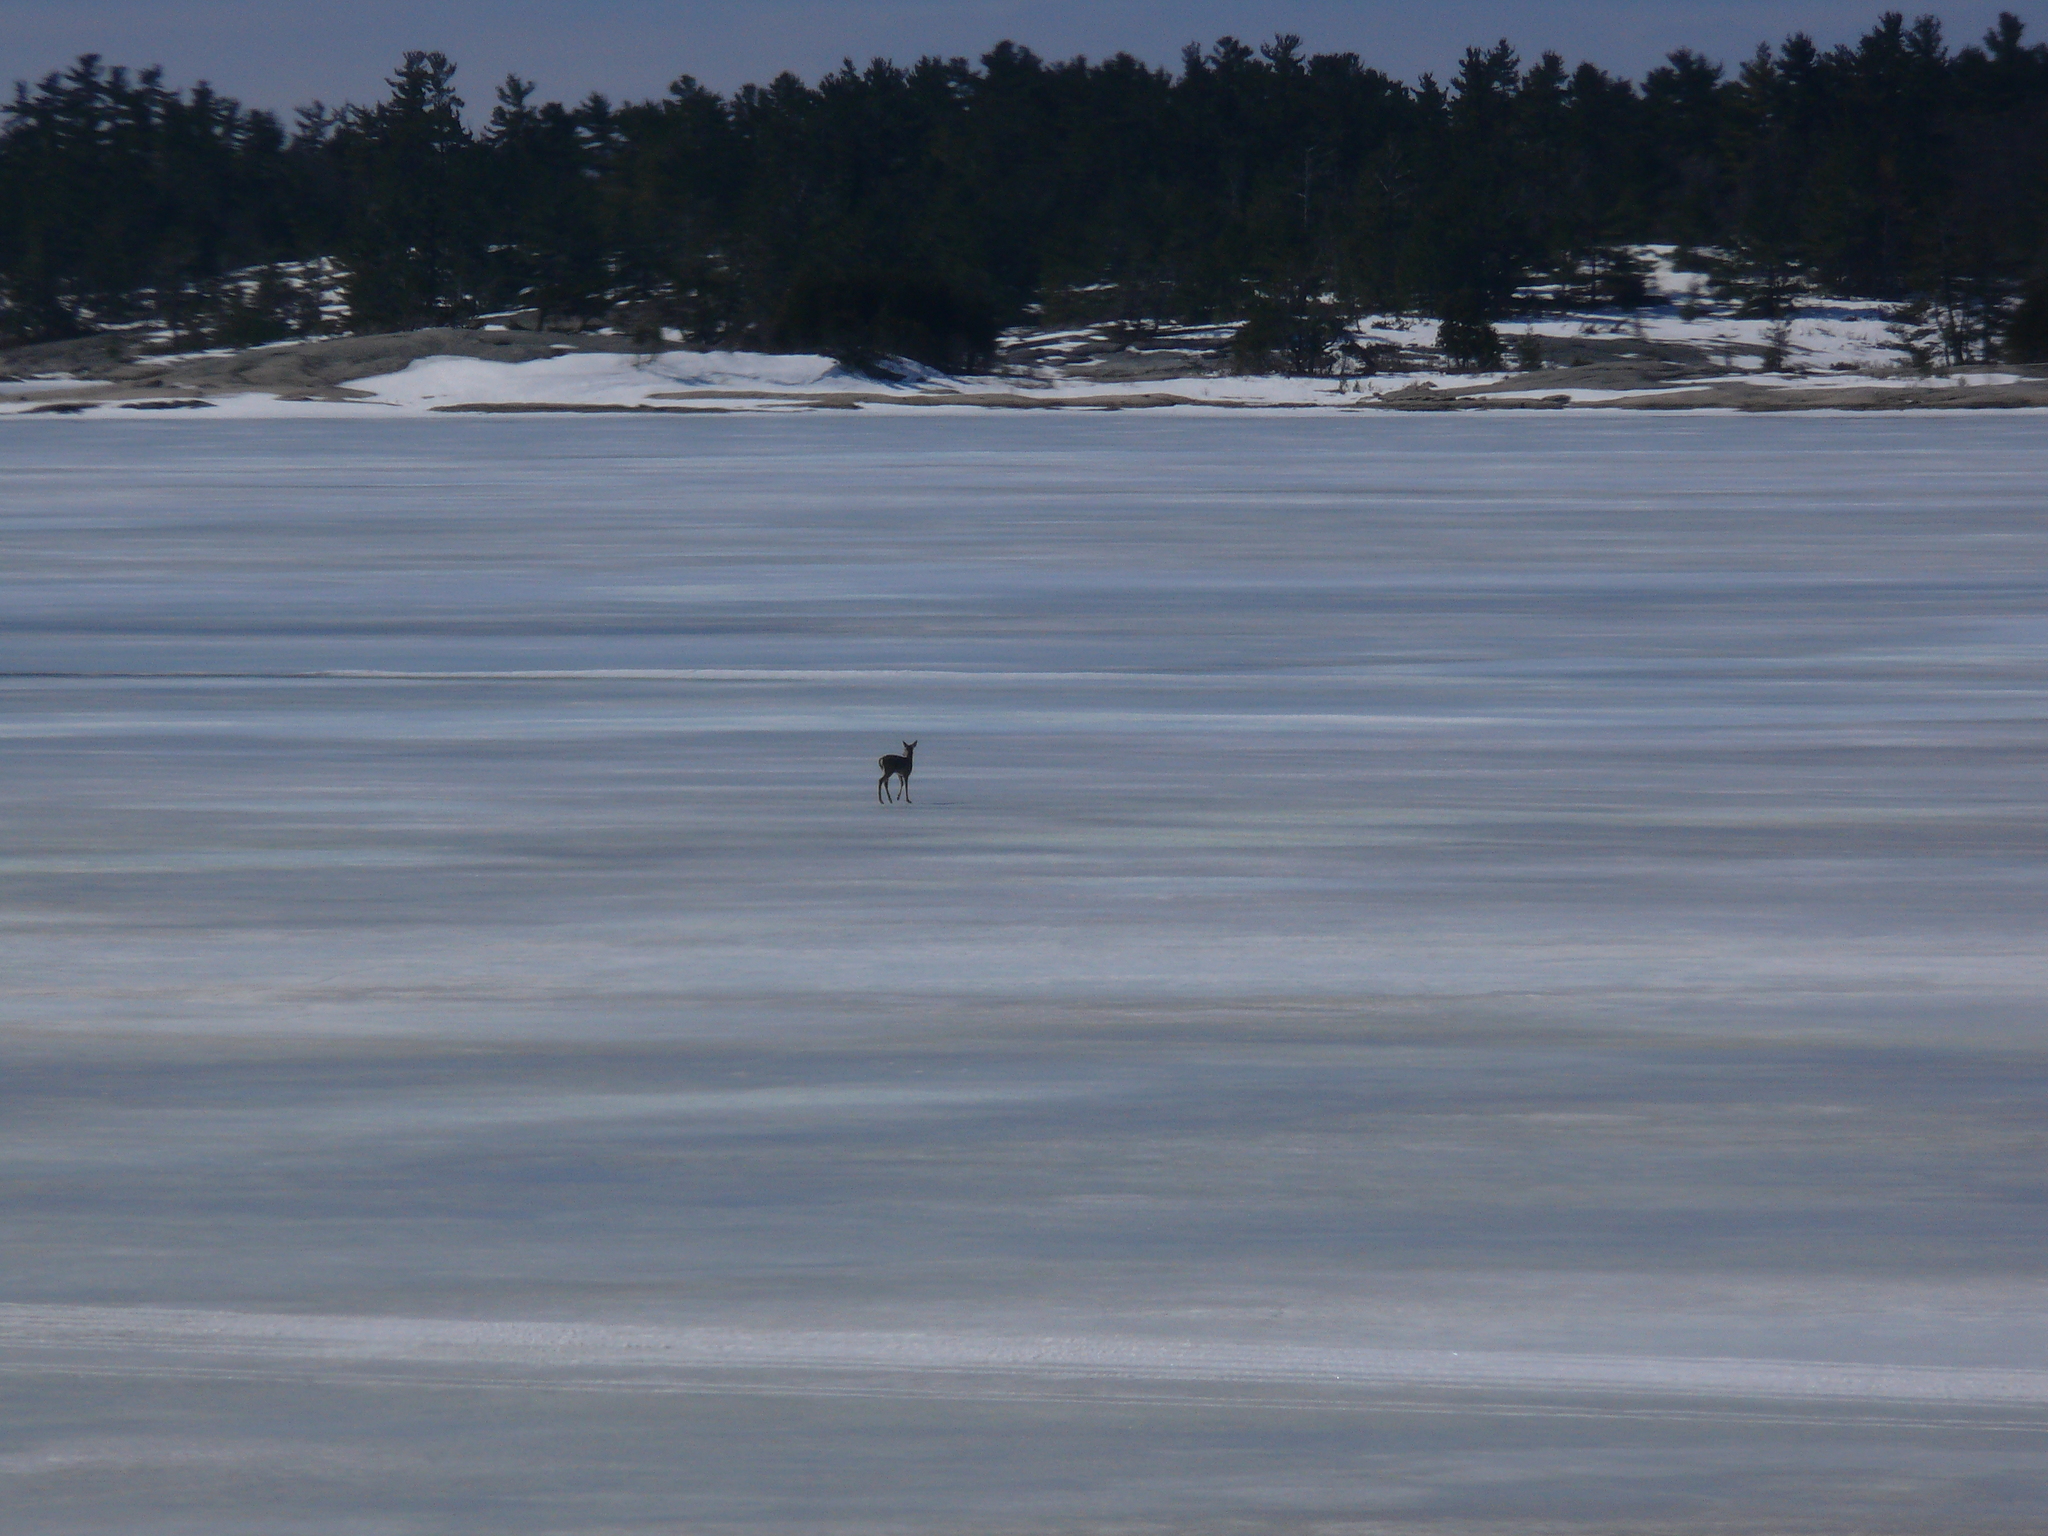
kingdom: Animalia
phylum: Chordata
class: Mammalia
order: Artiodactyla
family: Cervidae
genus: Odocoileus
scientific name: Odocoileus virginianus
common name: White-tailed deer
